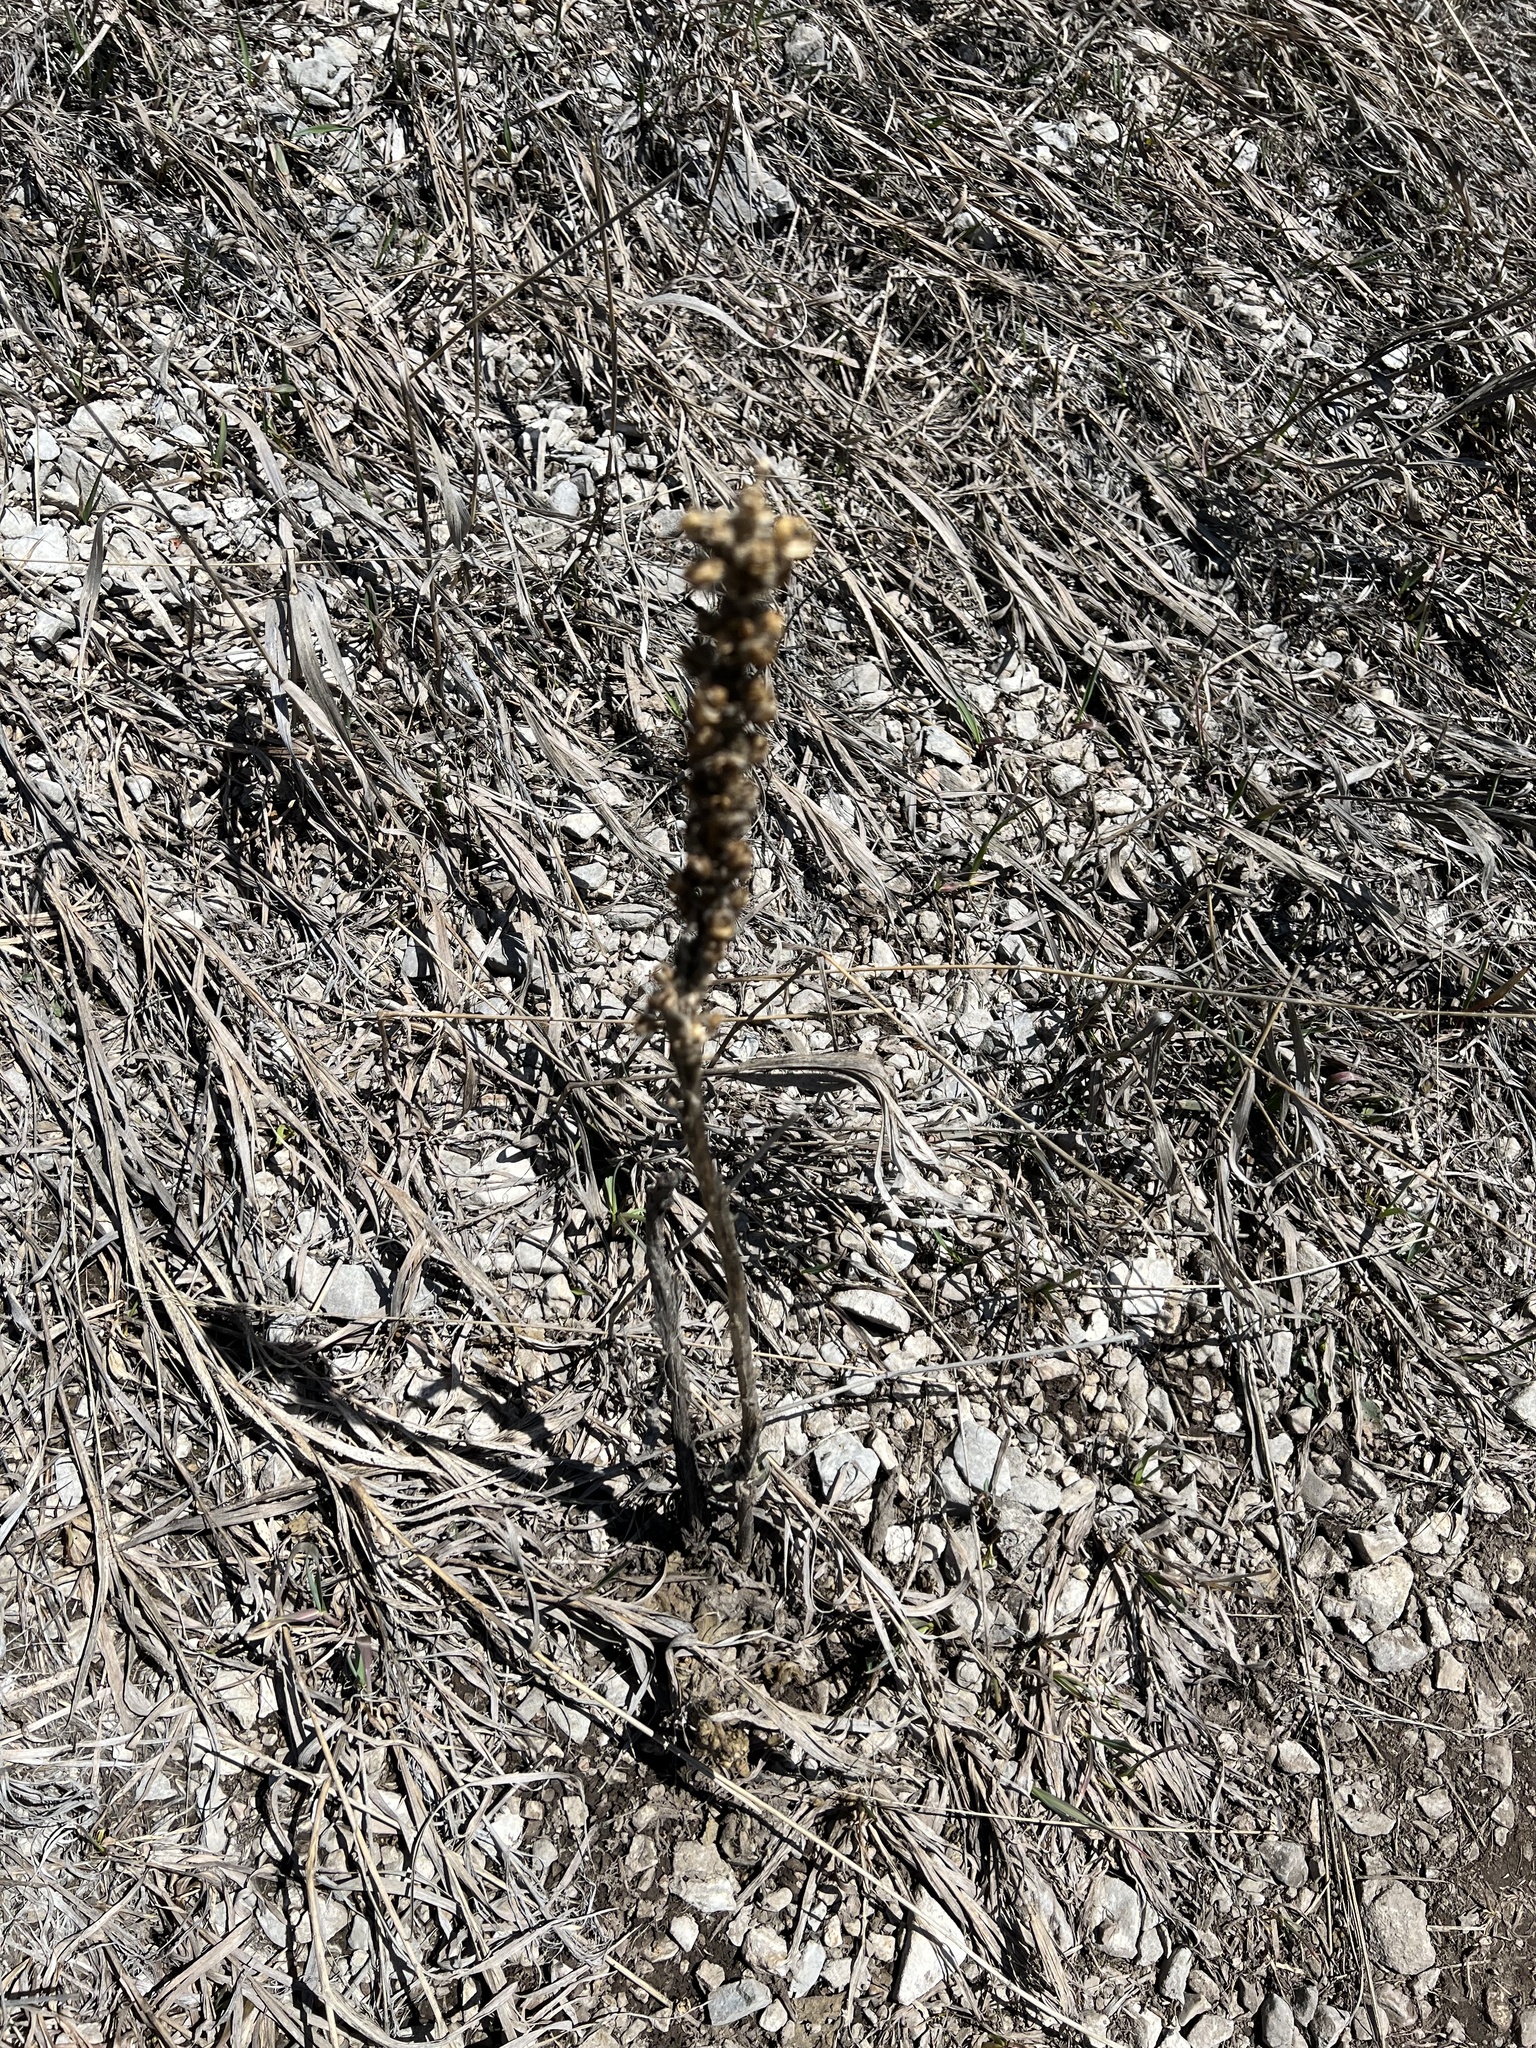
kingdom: Plantae
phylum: Tracheophyta
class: Magnoliopsida
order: Lamiales
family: Scrophulariaceae
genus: Verbascum
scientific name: Verbascum thapsus
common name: Common mullein
